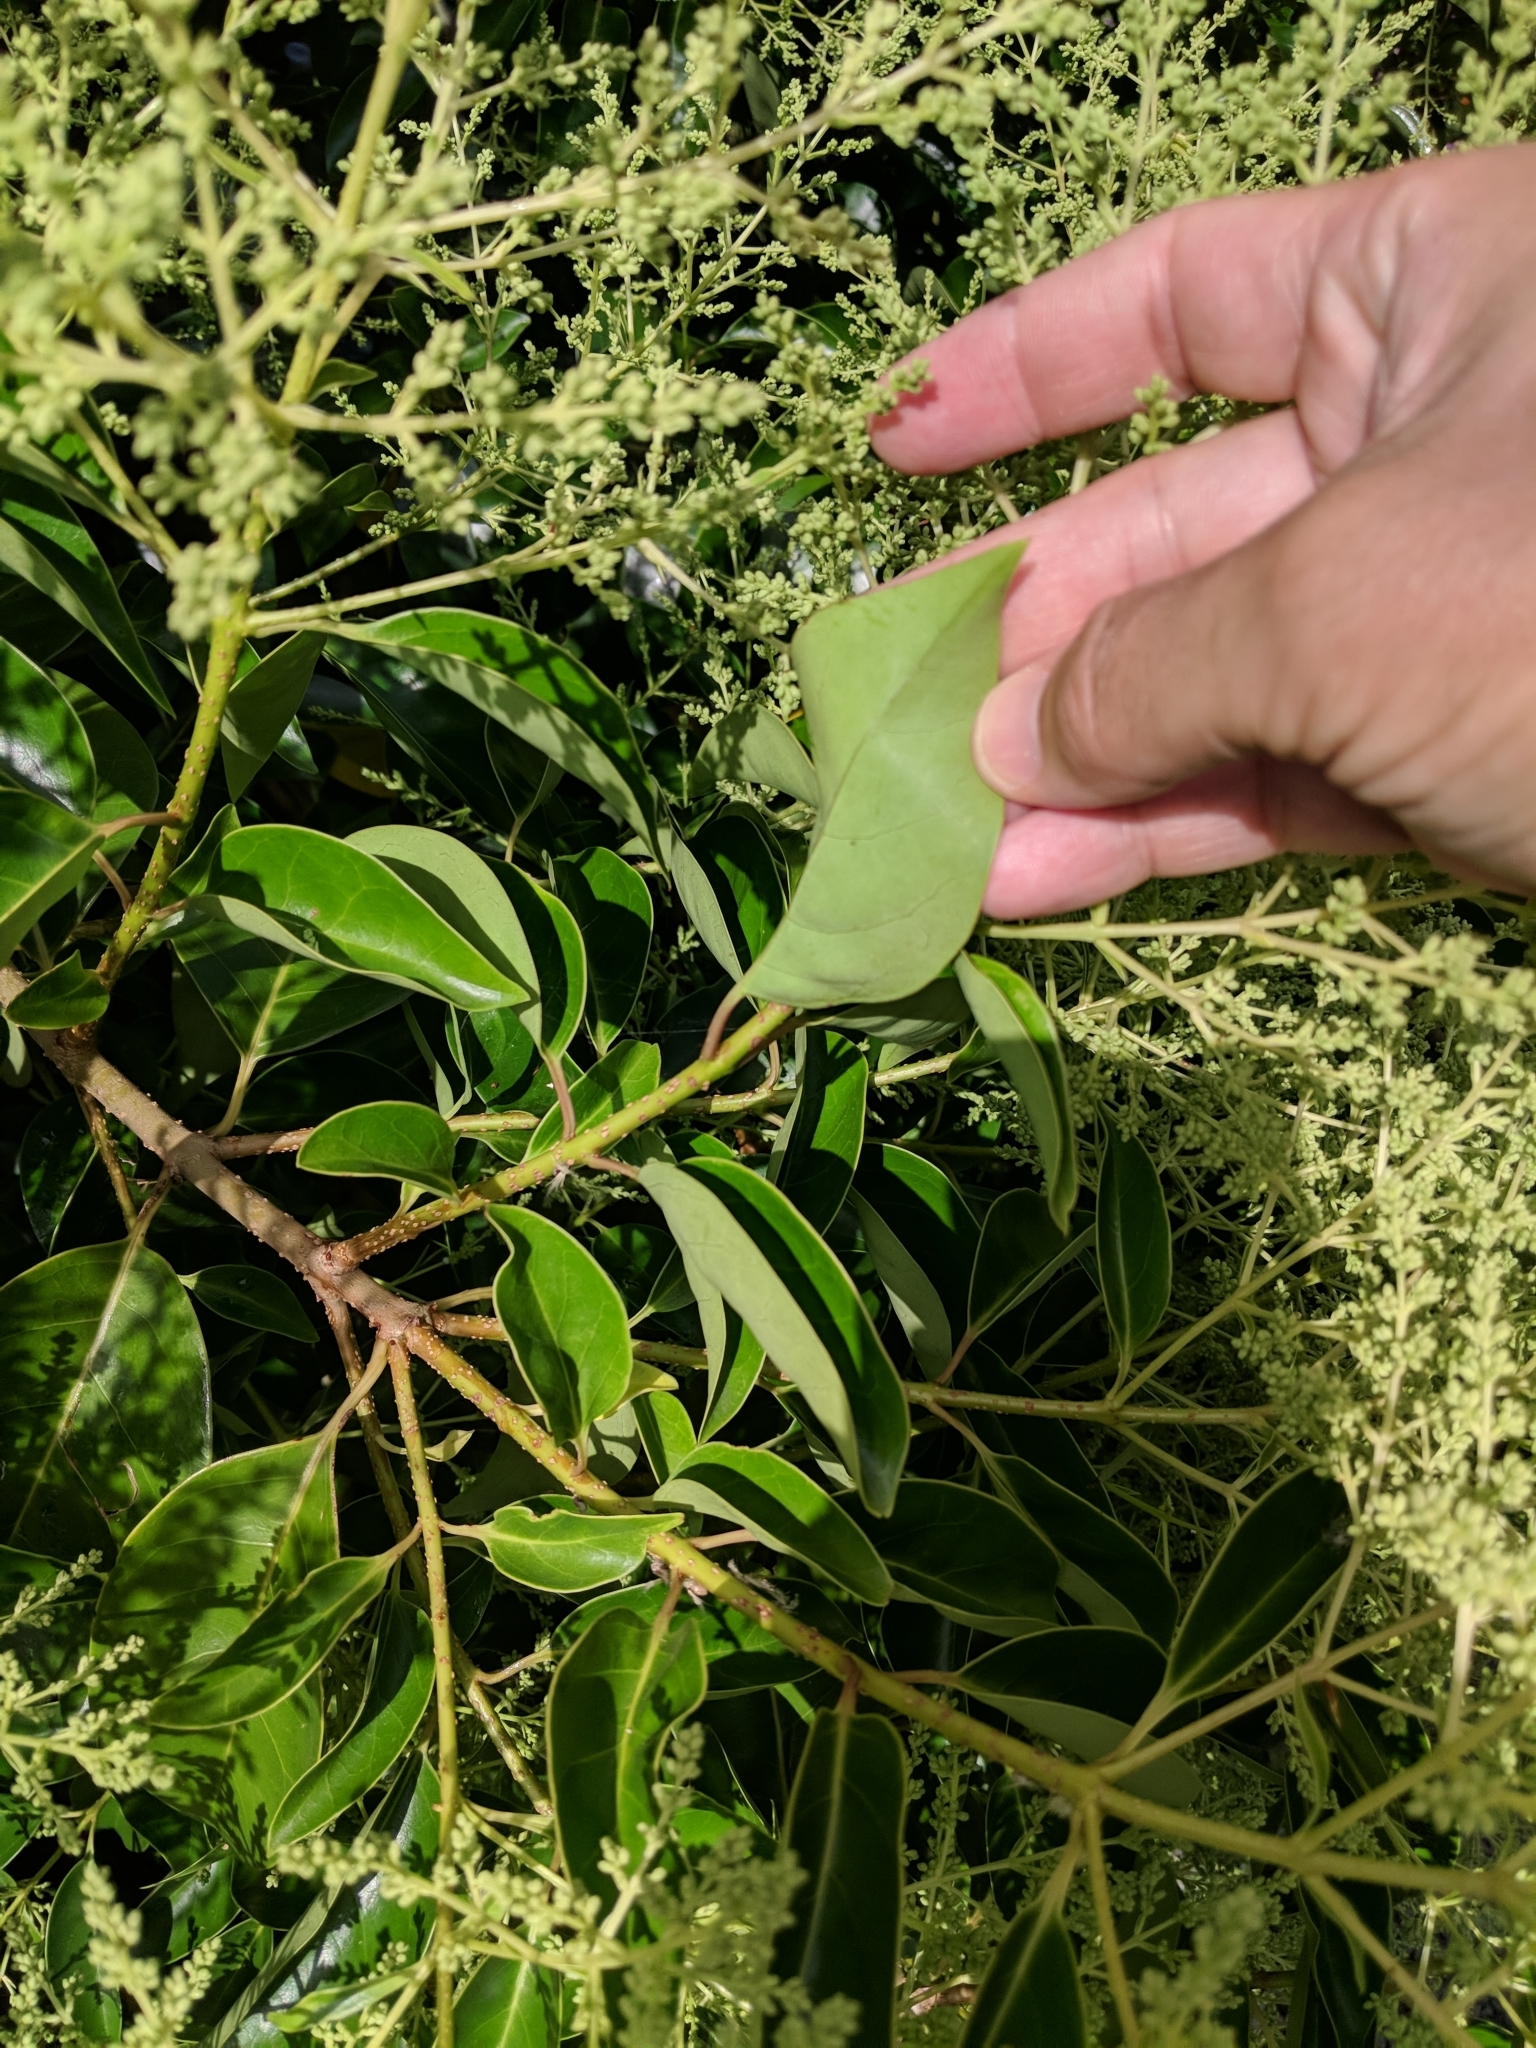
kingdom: Plantae
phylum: Tracheophyta
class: Magnoliopsida
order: Lamiales
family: Oleaceae
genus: Ligustrum
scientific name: Ligustrum lucidum
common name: Glossy privet
